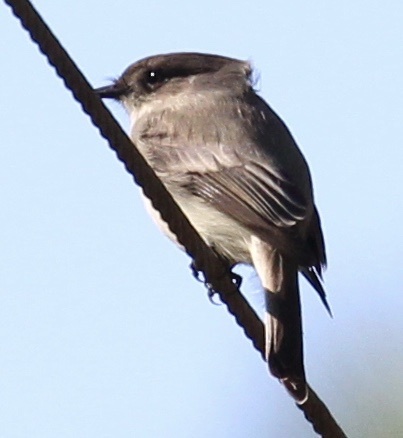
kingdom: Animalia
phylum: Chordata
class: Aves
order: Passeriformes
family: Tyrannidae
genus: Sayornis
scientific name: Sayornis phoebe
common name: Eastern phoebe
